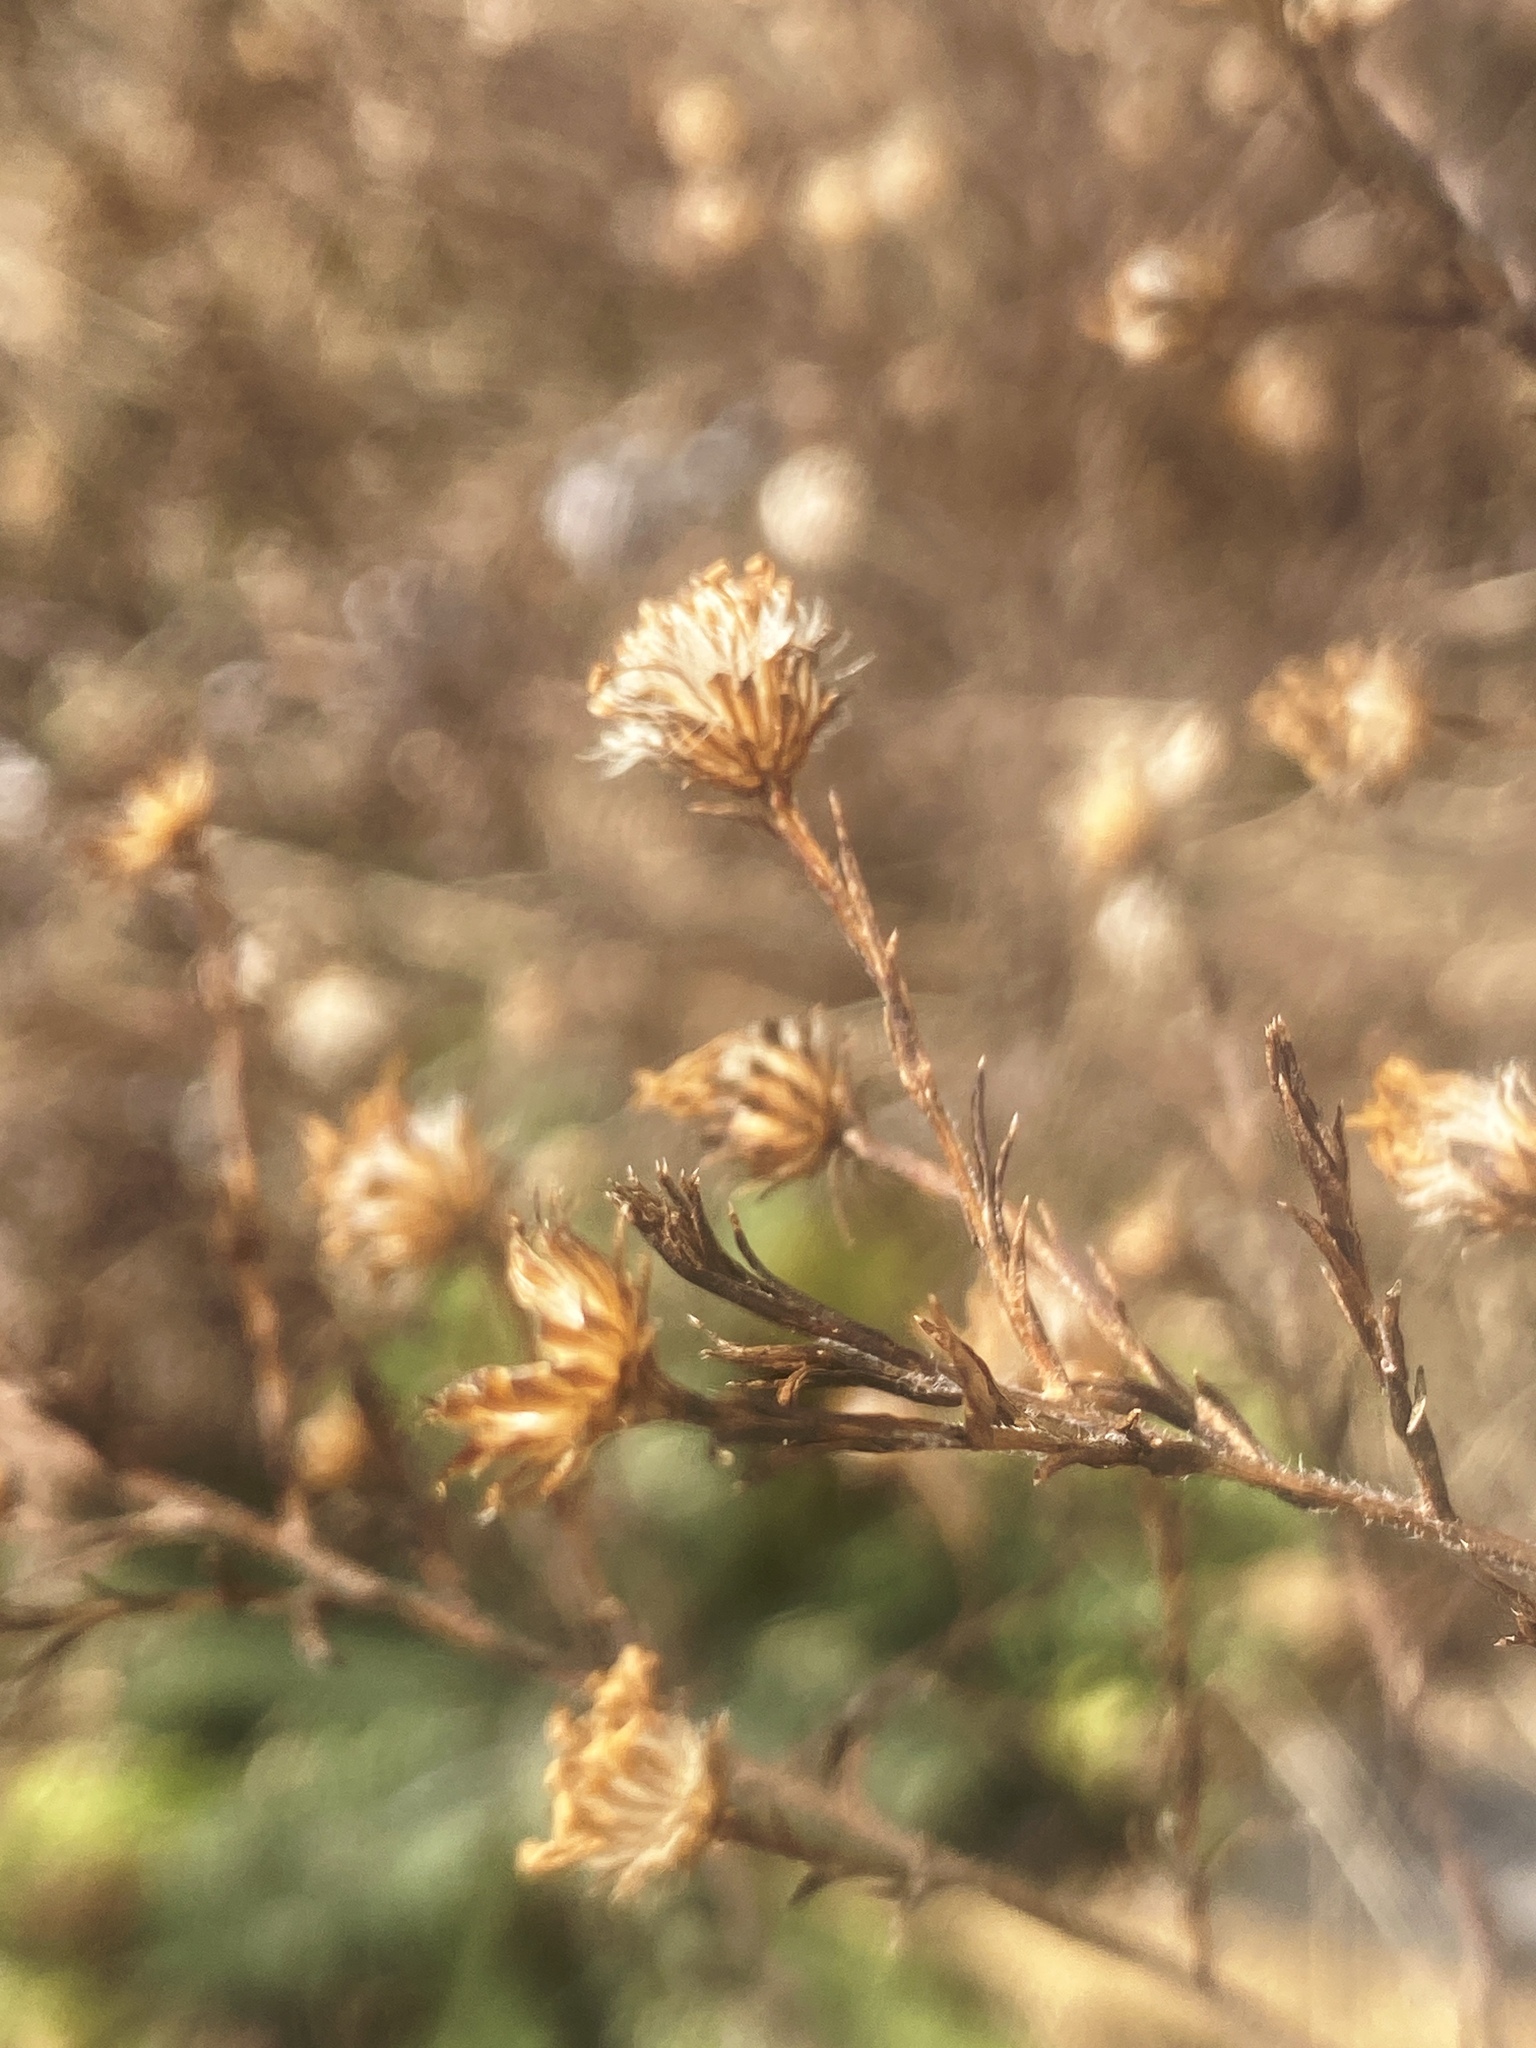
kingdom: Plantae
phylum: Tracheophyta
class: Magnoliopsida
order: Asterales
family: Asteraceae
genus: Symphyotrichum
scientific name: Symphyotrichum pilosum
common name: Awl aster
